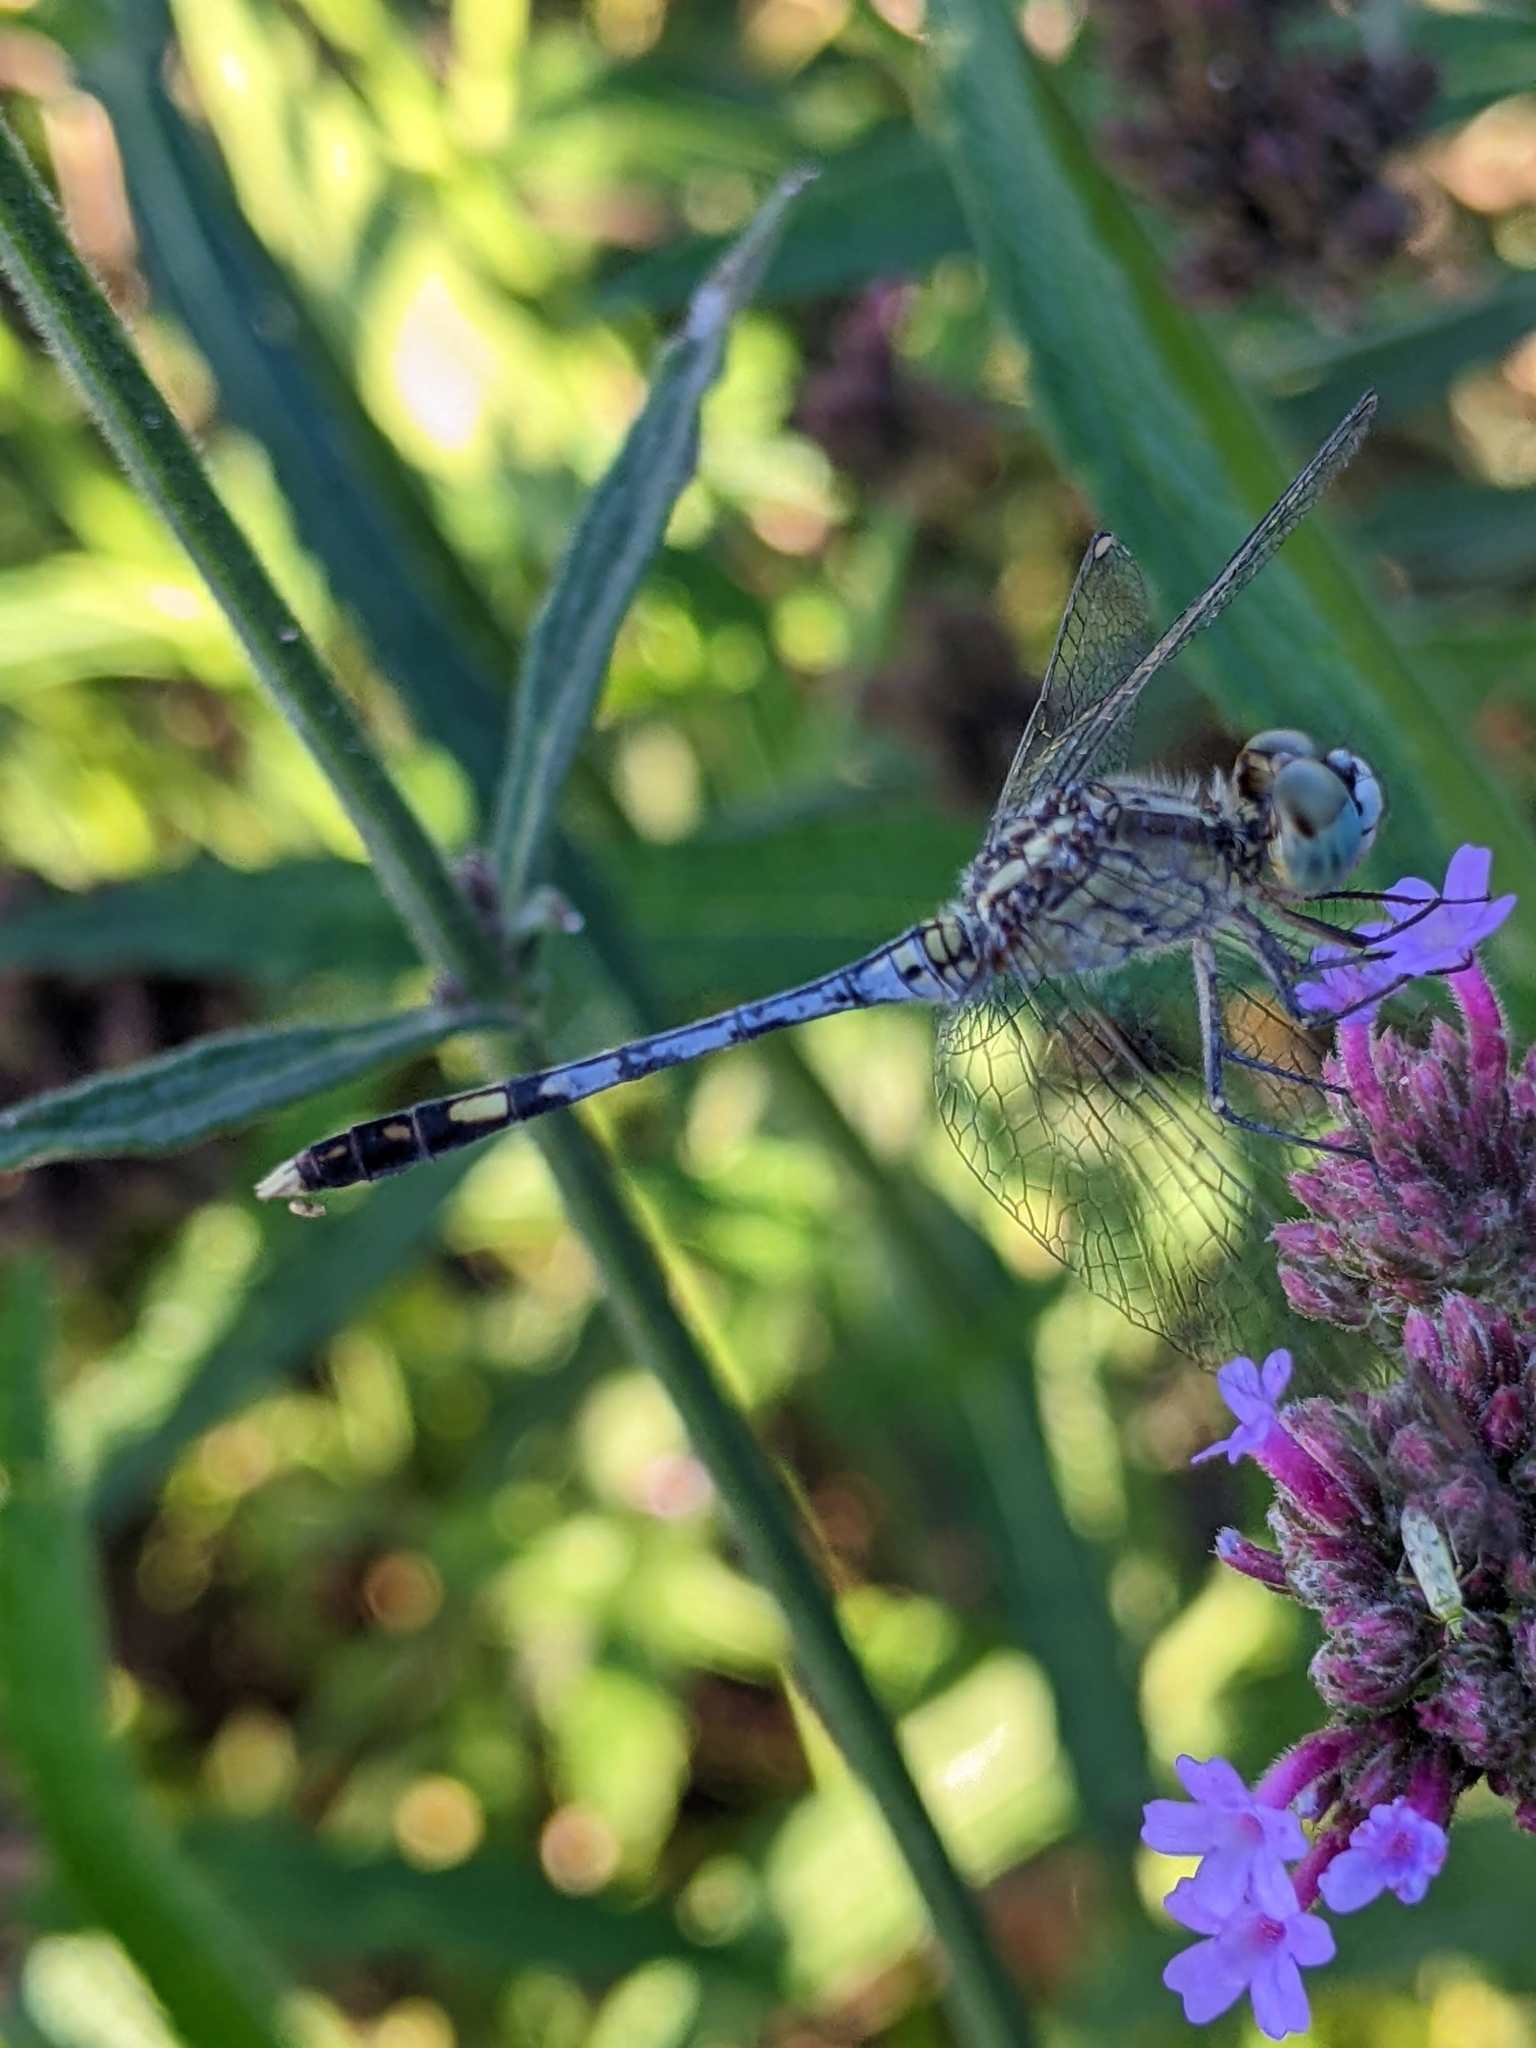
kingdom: Animalia
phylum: Arthropoda
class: Insecta
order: Odonata
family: Libellulidae
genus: Diplacodes
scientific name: Diplacodes trivialis
